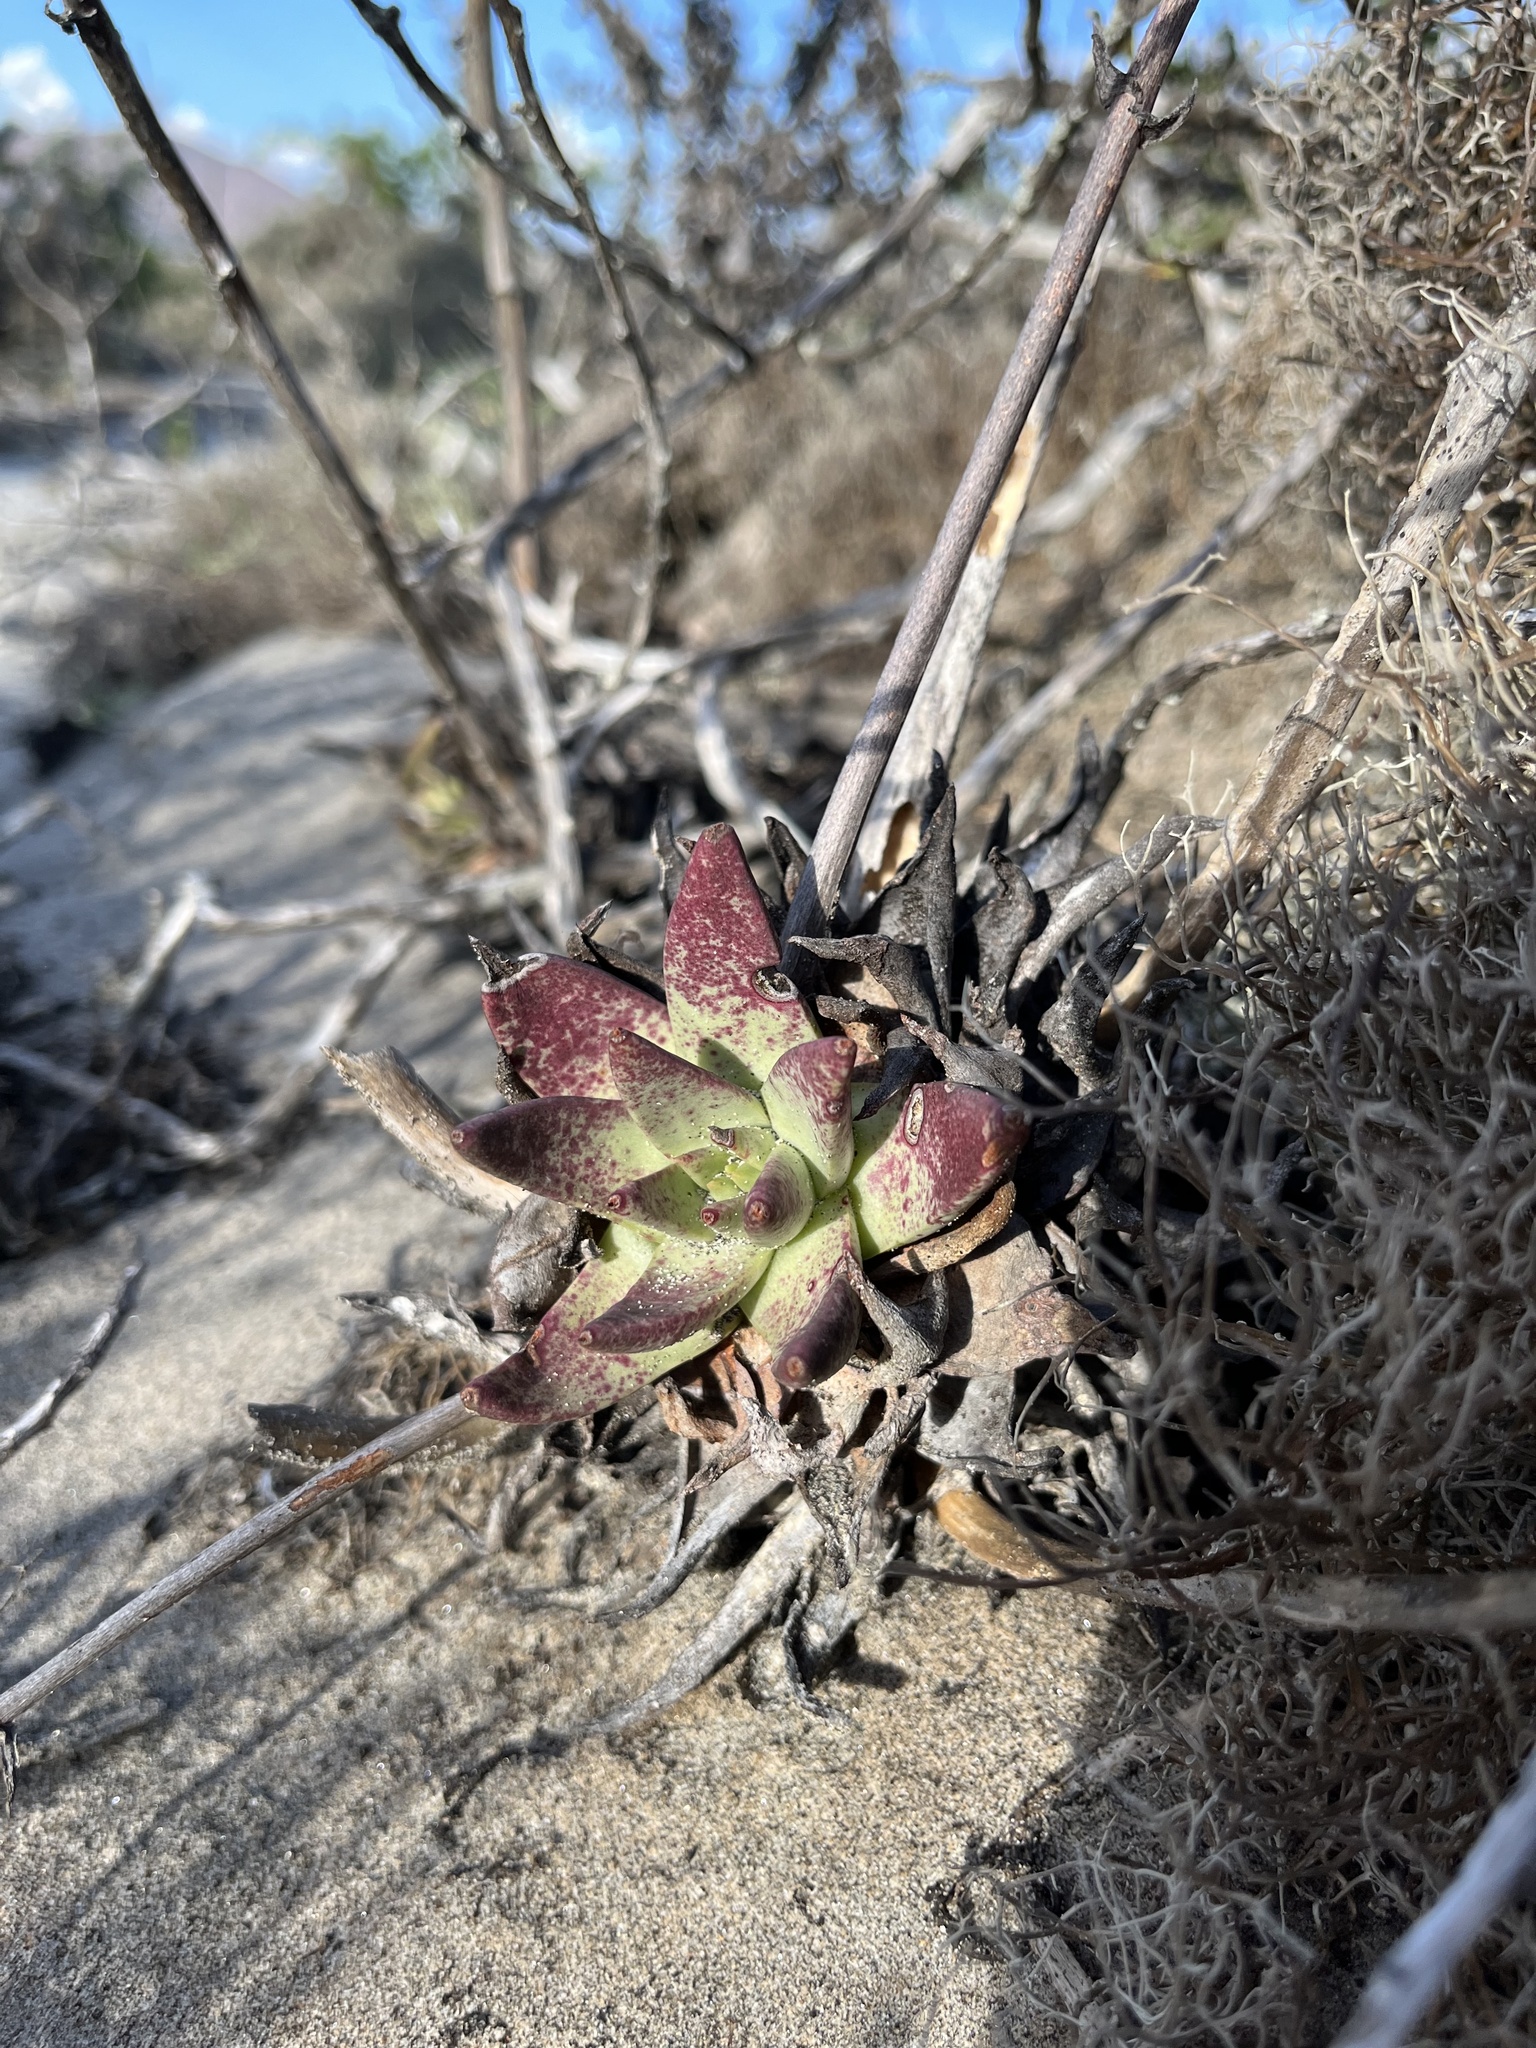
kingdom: Plantae
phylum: Tracheophyta
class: Magnoliopsida
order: Saxifragales
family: Crassulaceae
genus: Dudleya
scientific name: Dudleya cultrata
